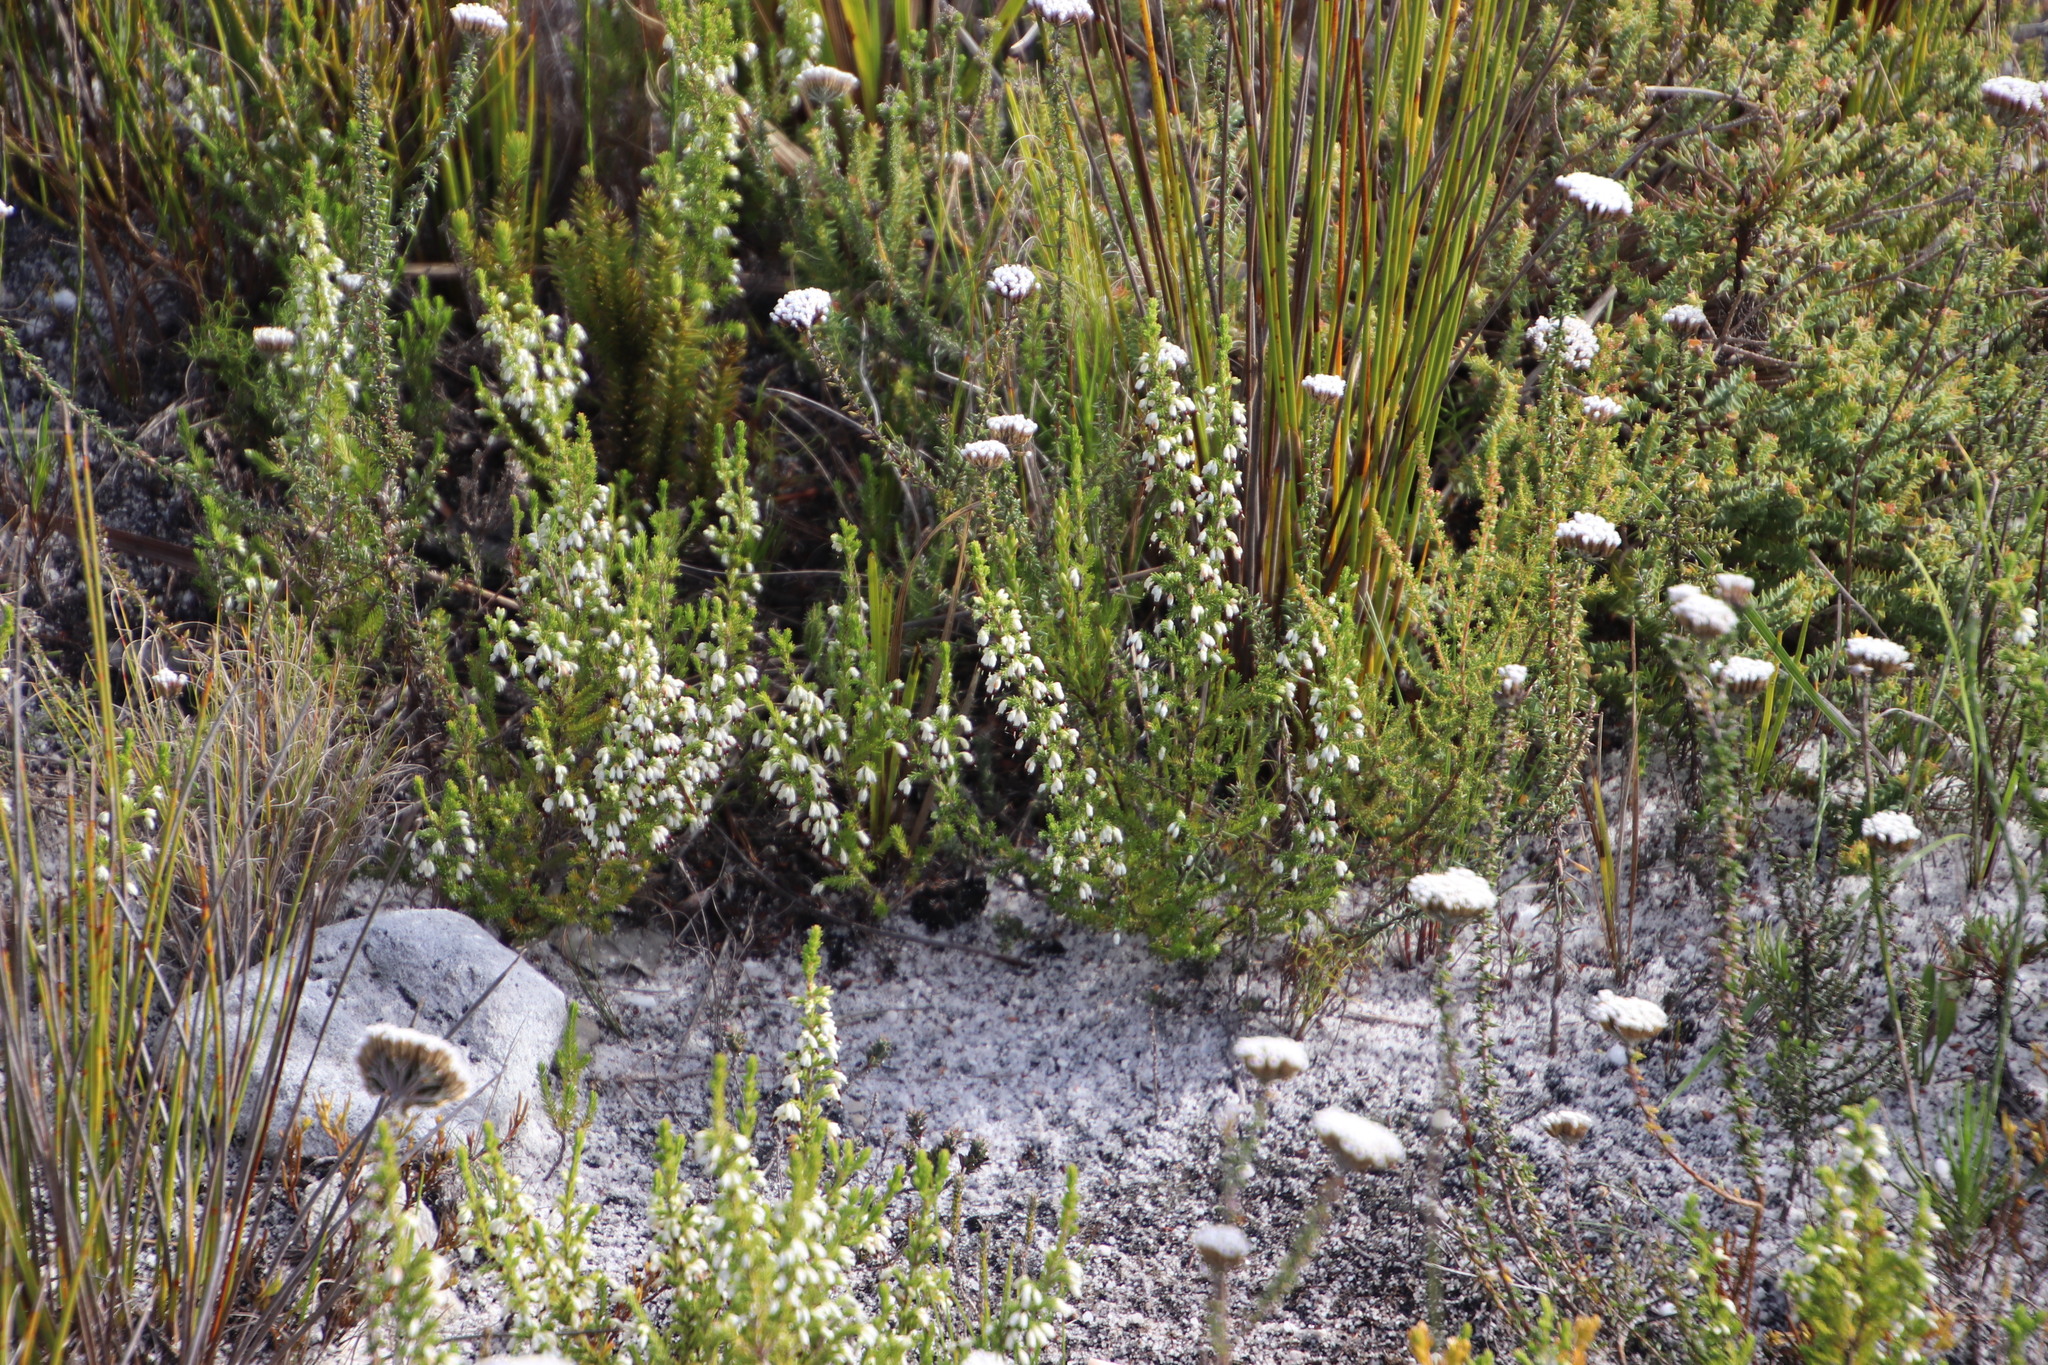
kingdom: Plantae
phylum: Tracheophyta
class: Magnoliopsida
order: Ericales
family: Ericaceae
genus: Erica
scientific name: Erica imbricata
